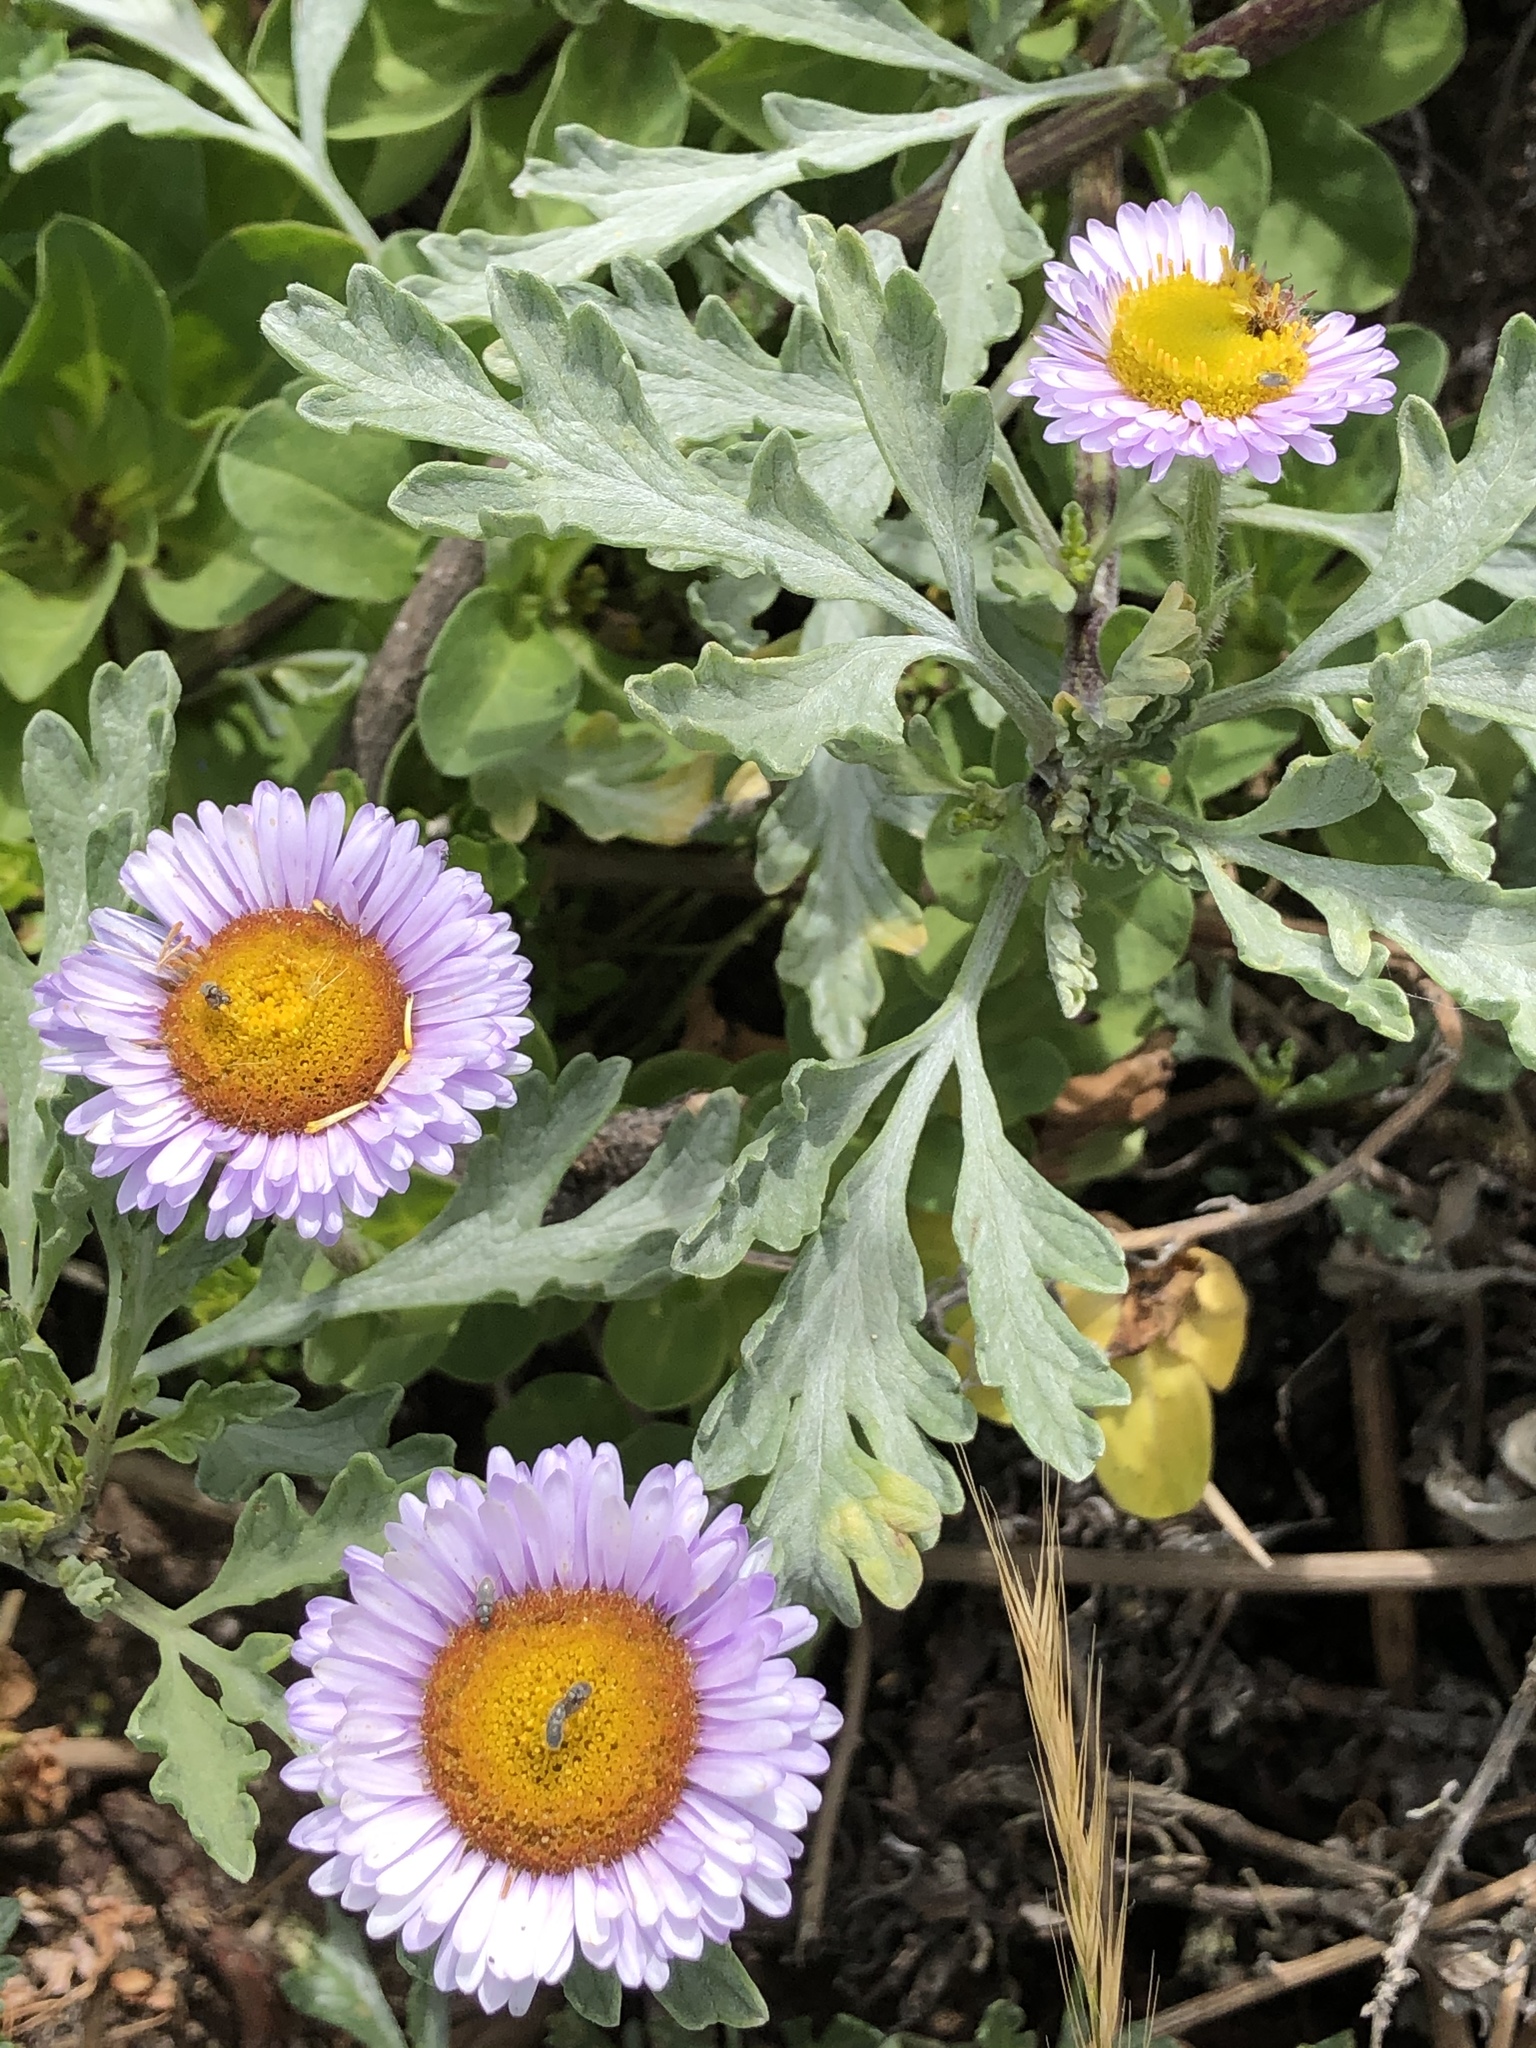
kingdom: Plantae
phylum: Tracheophyta
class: Magnoliopsida
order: Asterales
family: Asteraceae
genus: Erigeron
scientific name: Erigeron glaucus
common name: Seaside daisy
